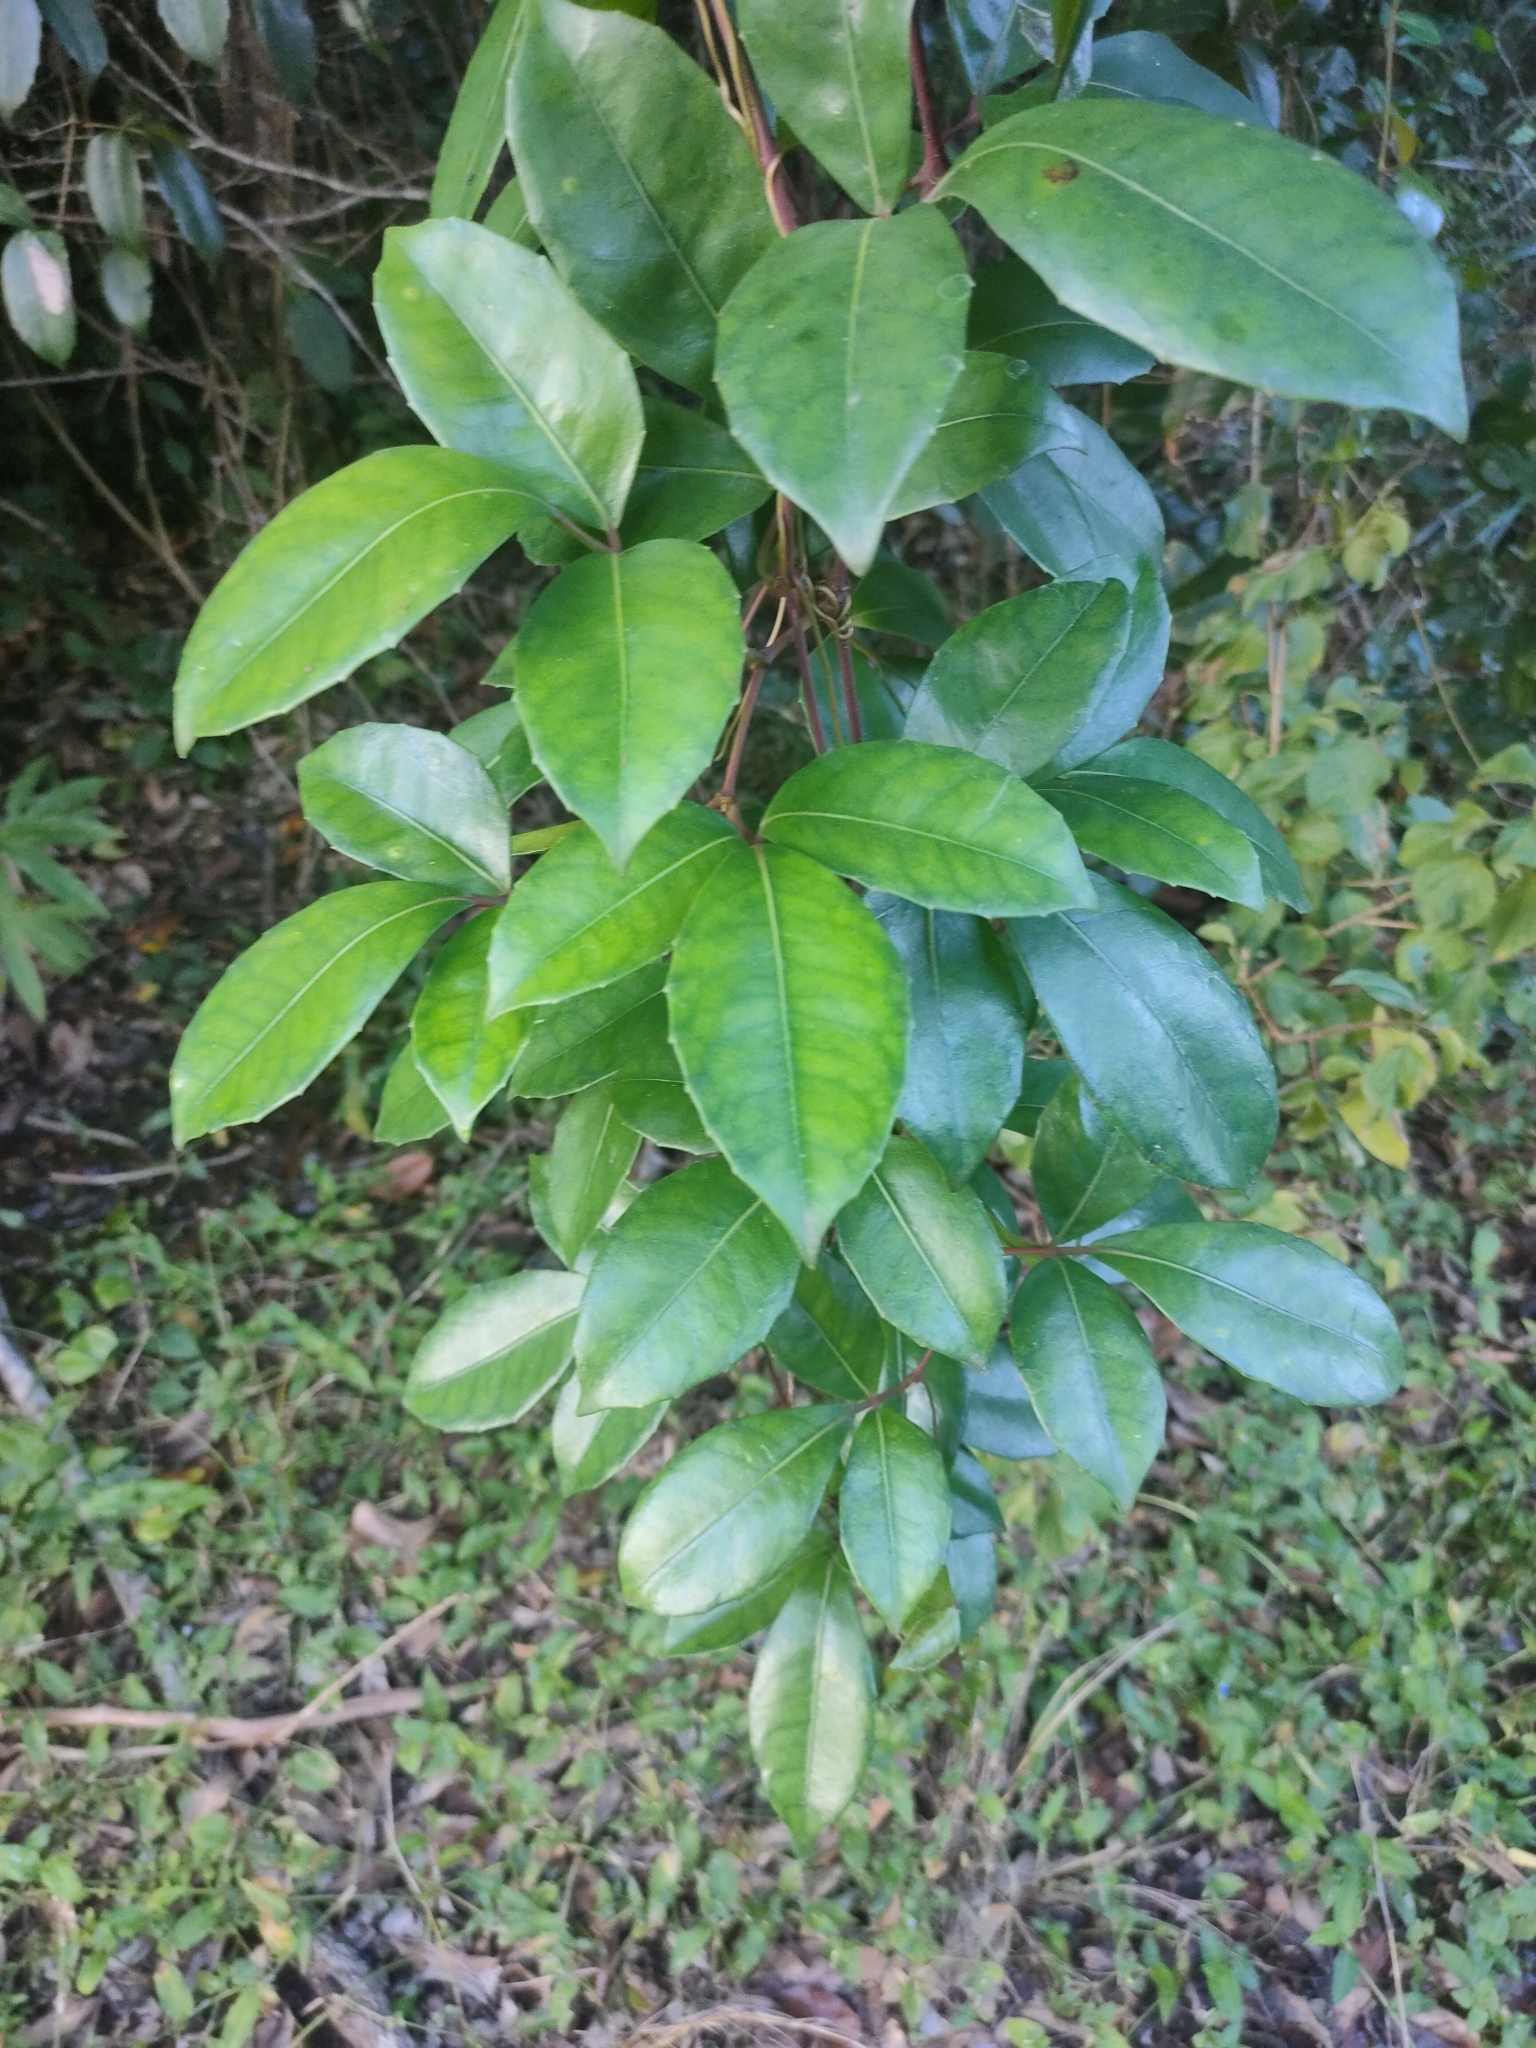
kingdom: Plantae
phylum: Tracheophyta
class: Magnoliopsida
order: Vitales
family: Vitaceae
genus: Tetrastigma
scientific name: Tetrastigma nitens
